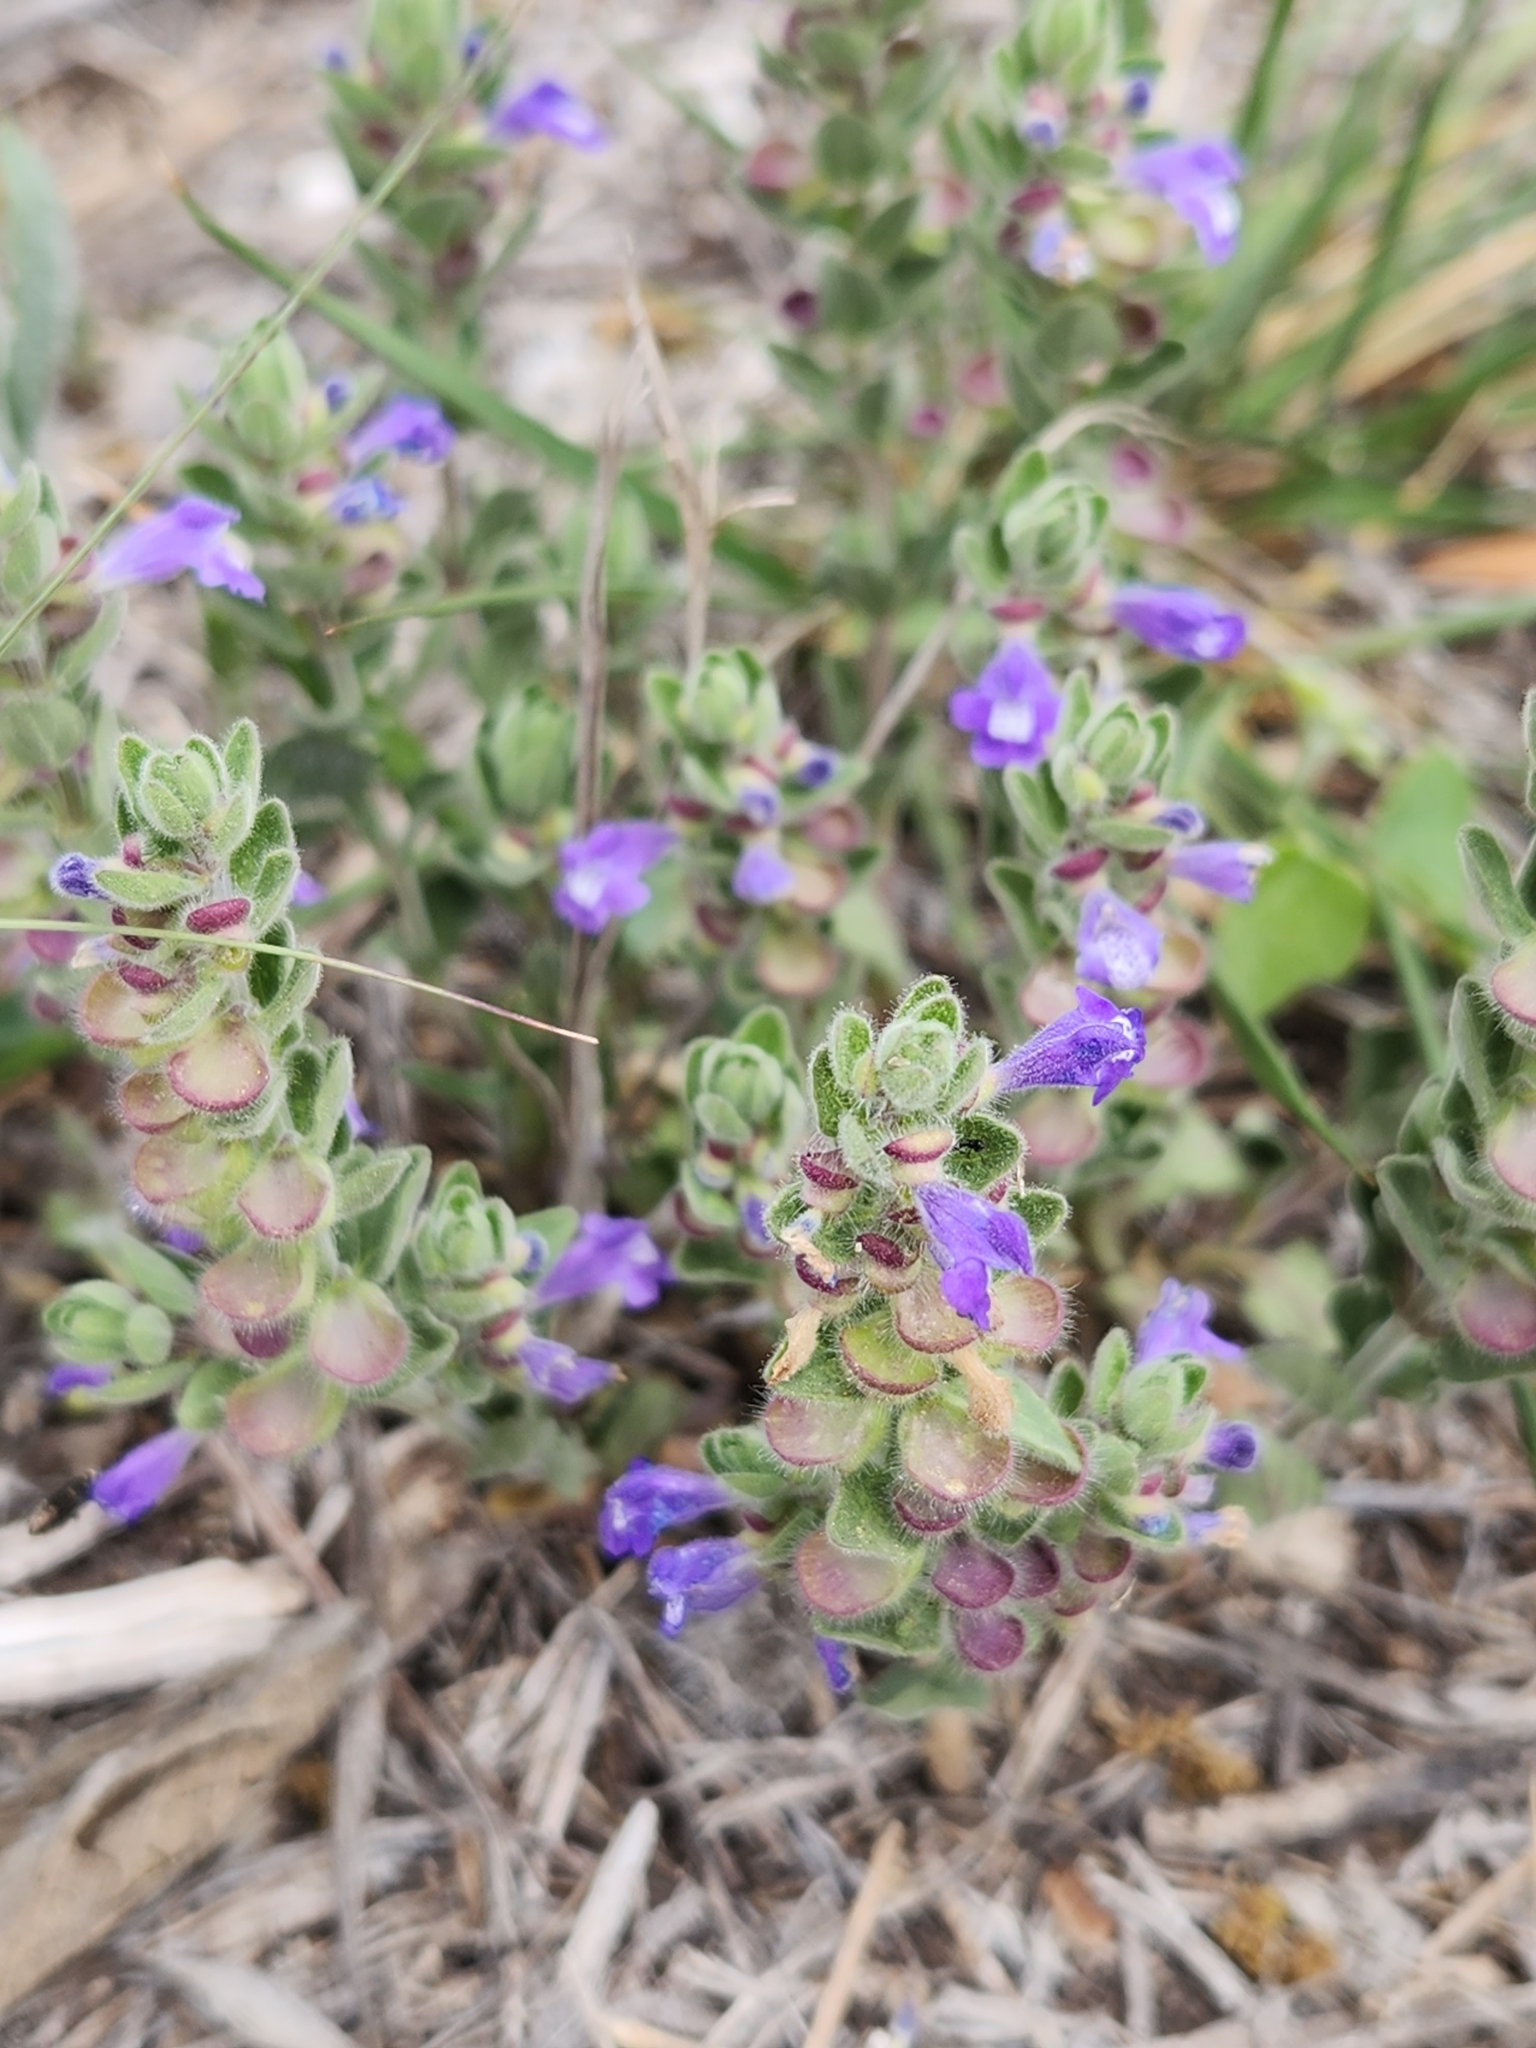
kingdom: Plantae
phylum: Tracheophyta
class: Magnoliopsida
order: Lamiales
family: Lamiaceae
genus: Scutellaria
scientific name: Scutellaria drummondii
